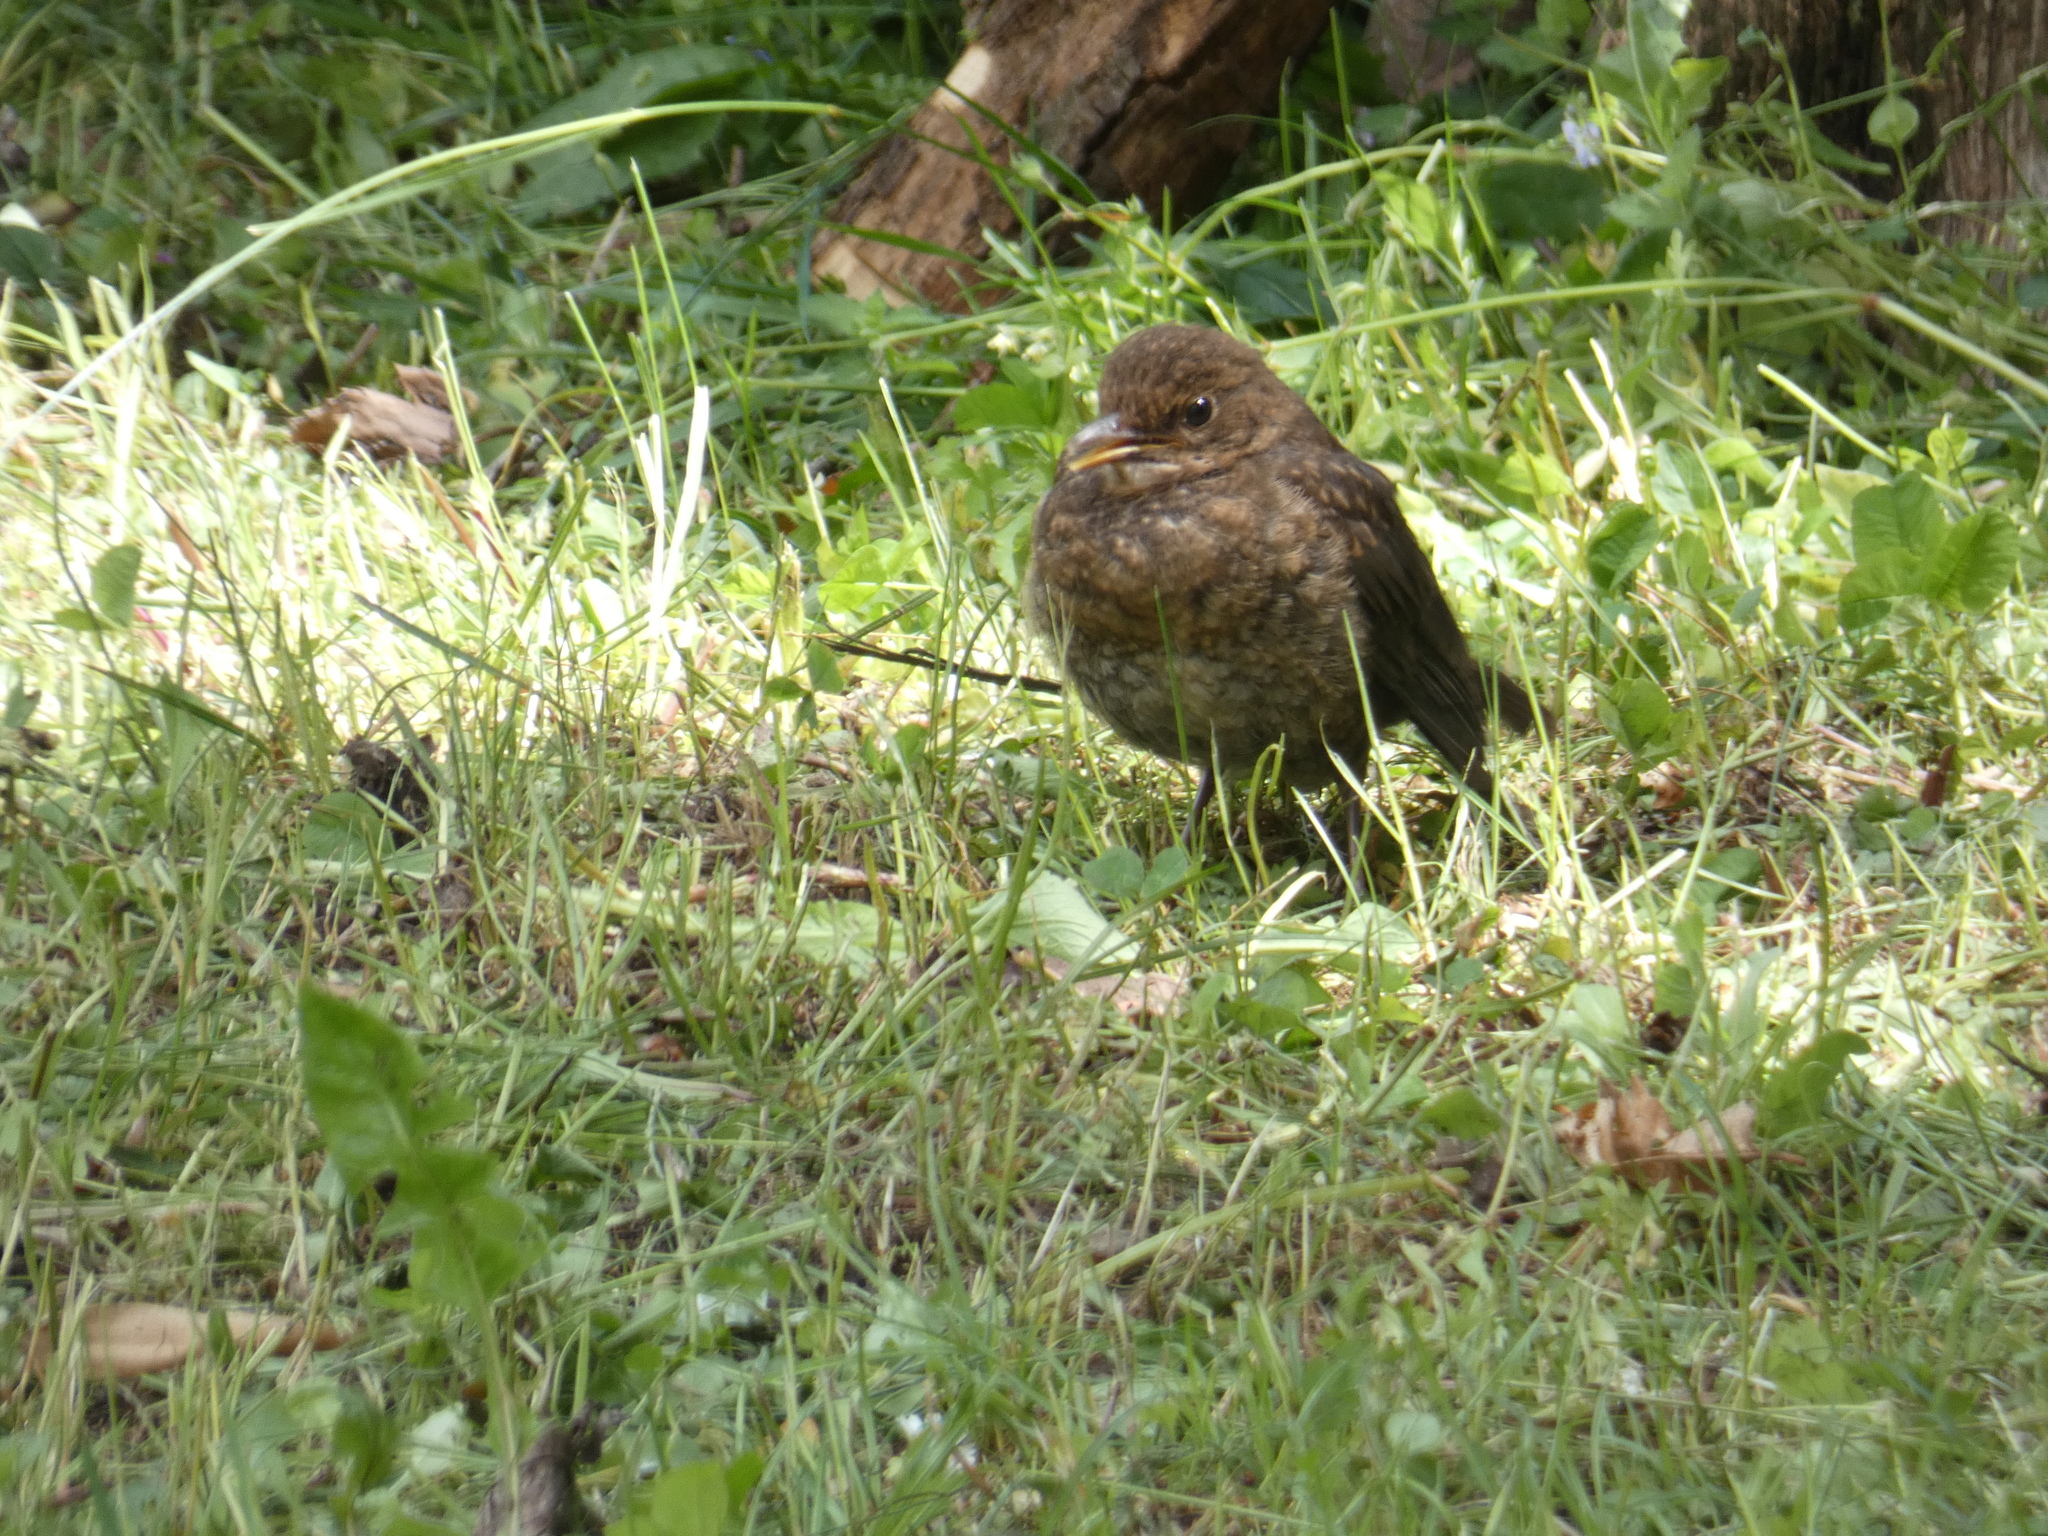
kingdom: Animalia
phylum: Chordata
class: Aves
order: Passeriformes
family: Turdidae
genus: Turdus
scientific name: Turdus merula
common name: Common blackbird
